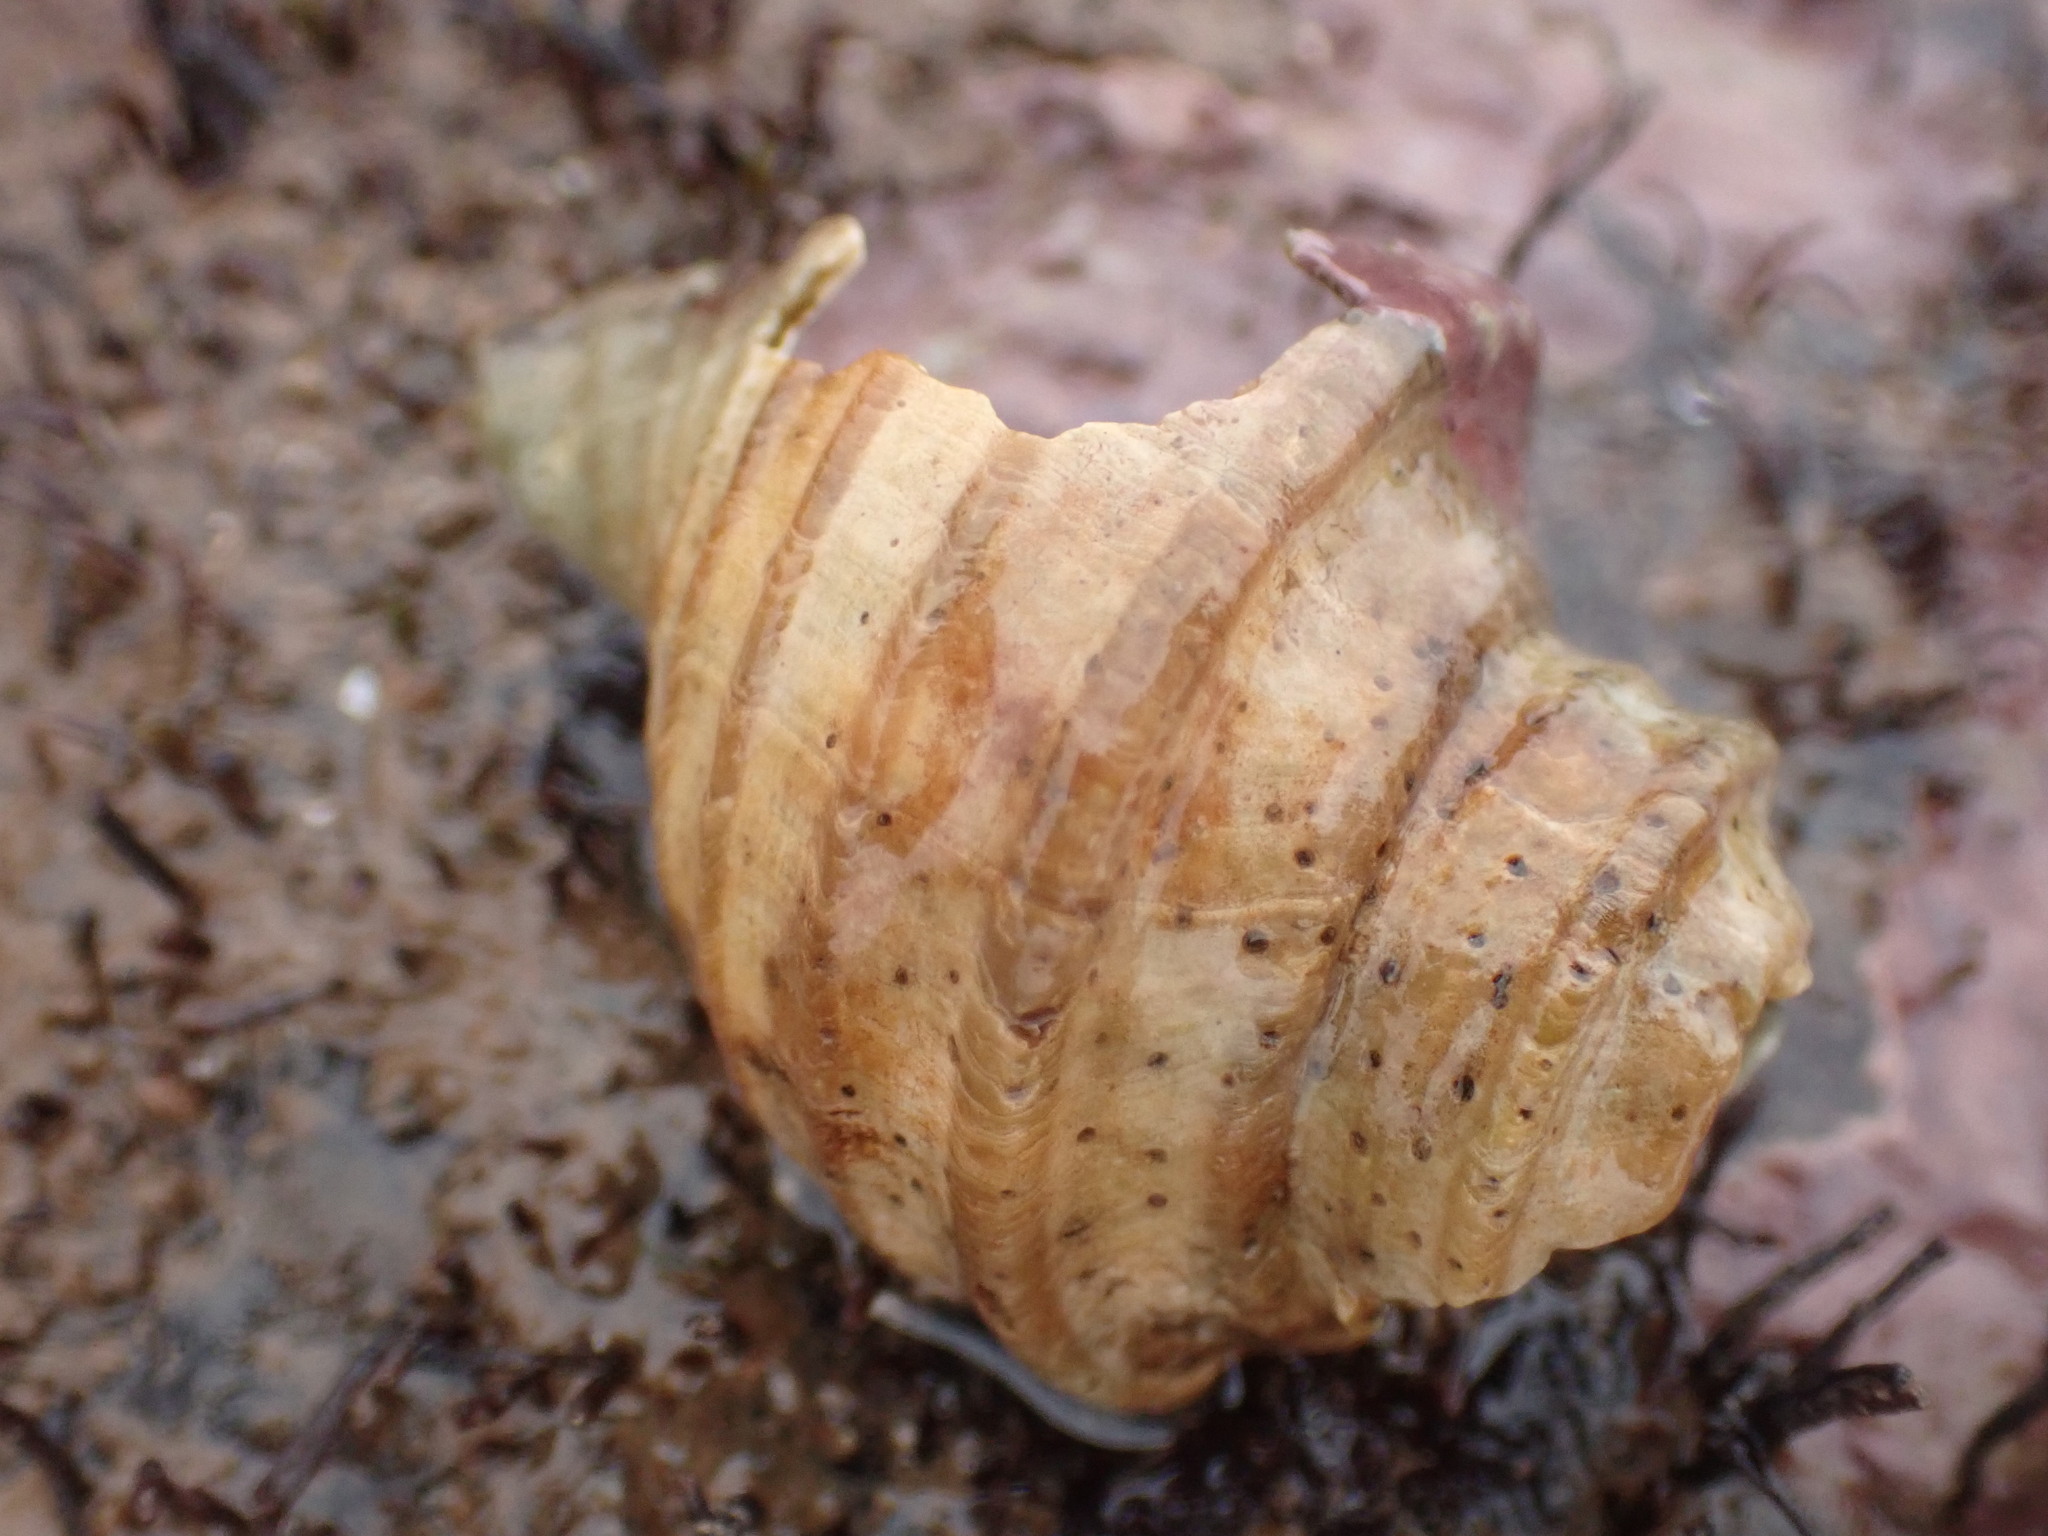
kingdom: Animalia
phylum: Mollusca
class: Gastropoda
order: Neogastropoda
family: Buccinidae
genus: Neptunea
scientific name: Neptunea decemcostata
